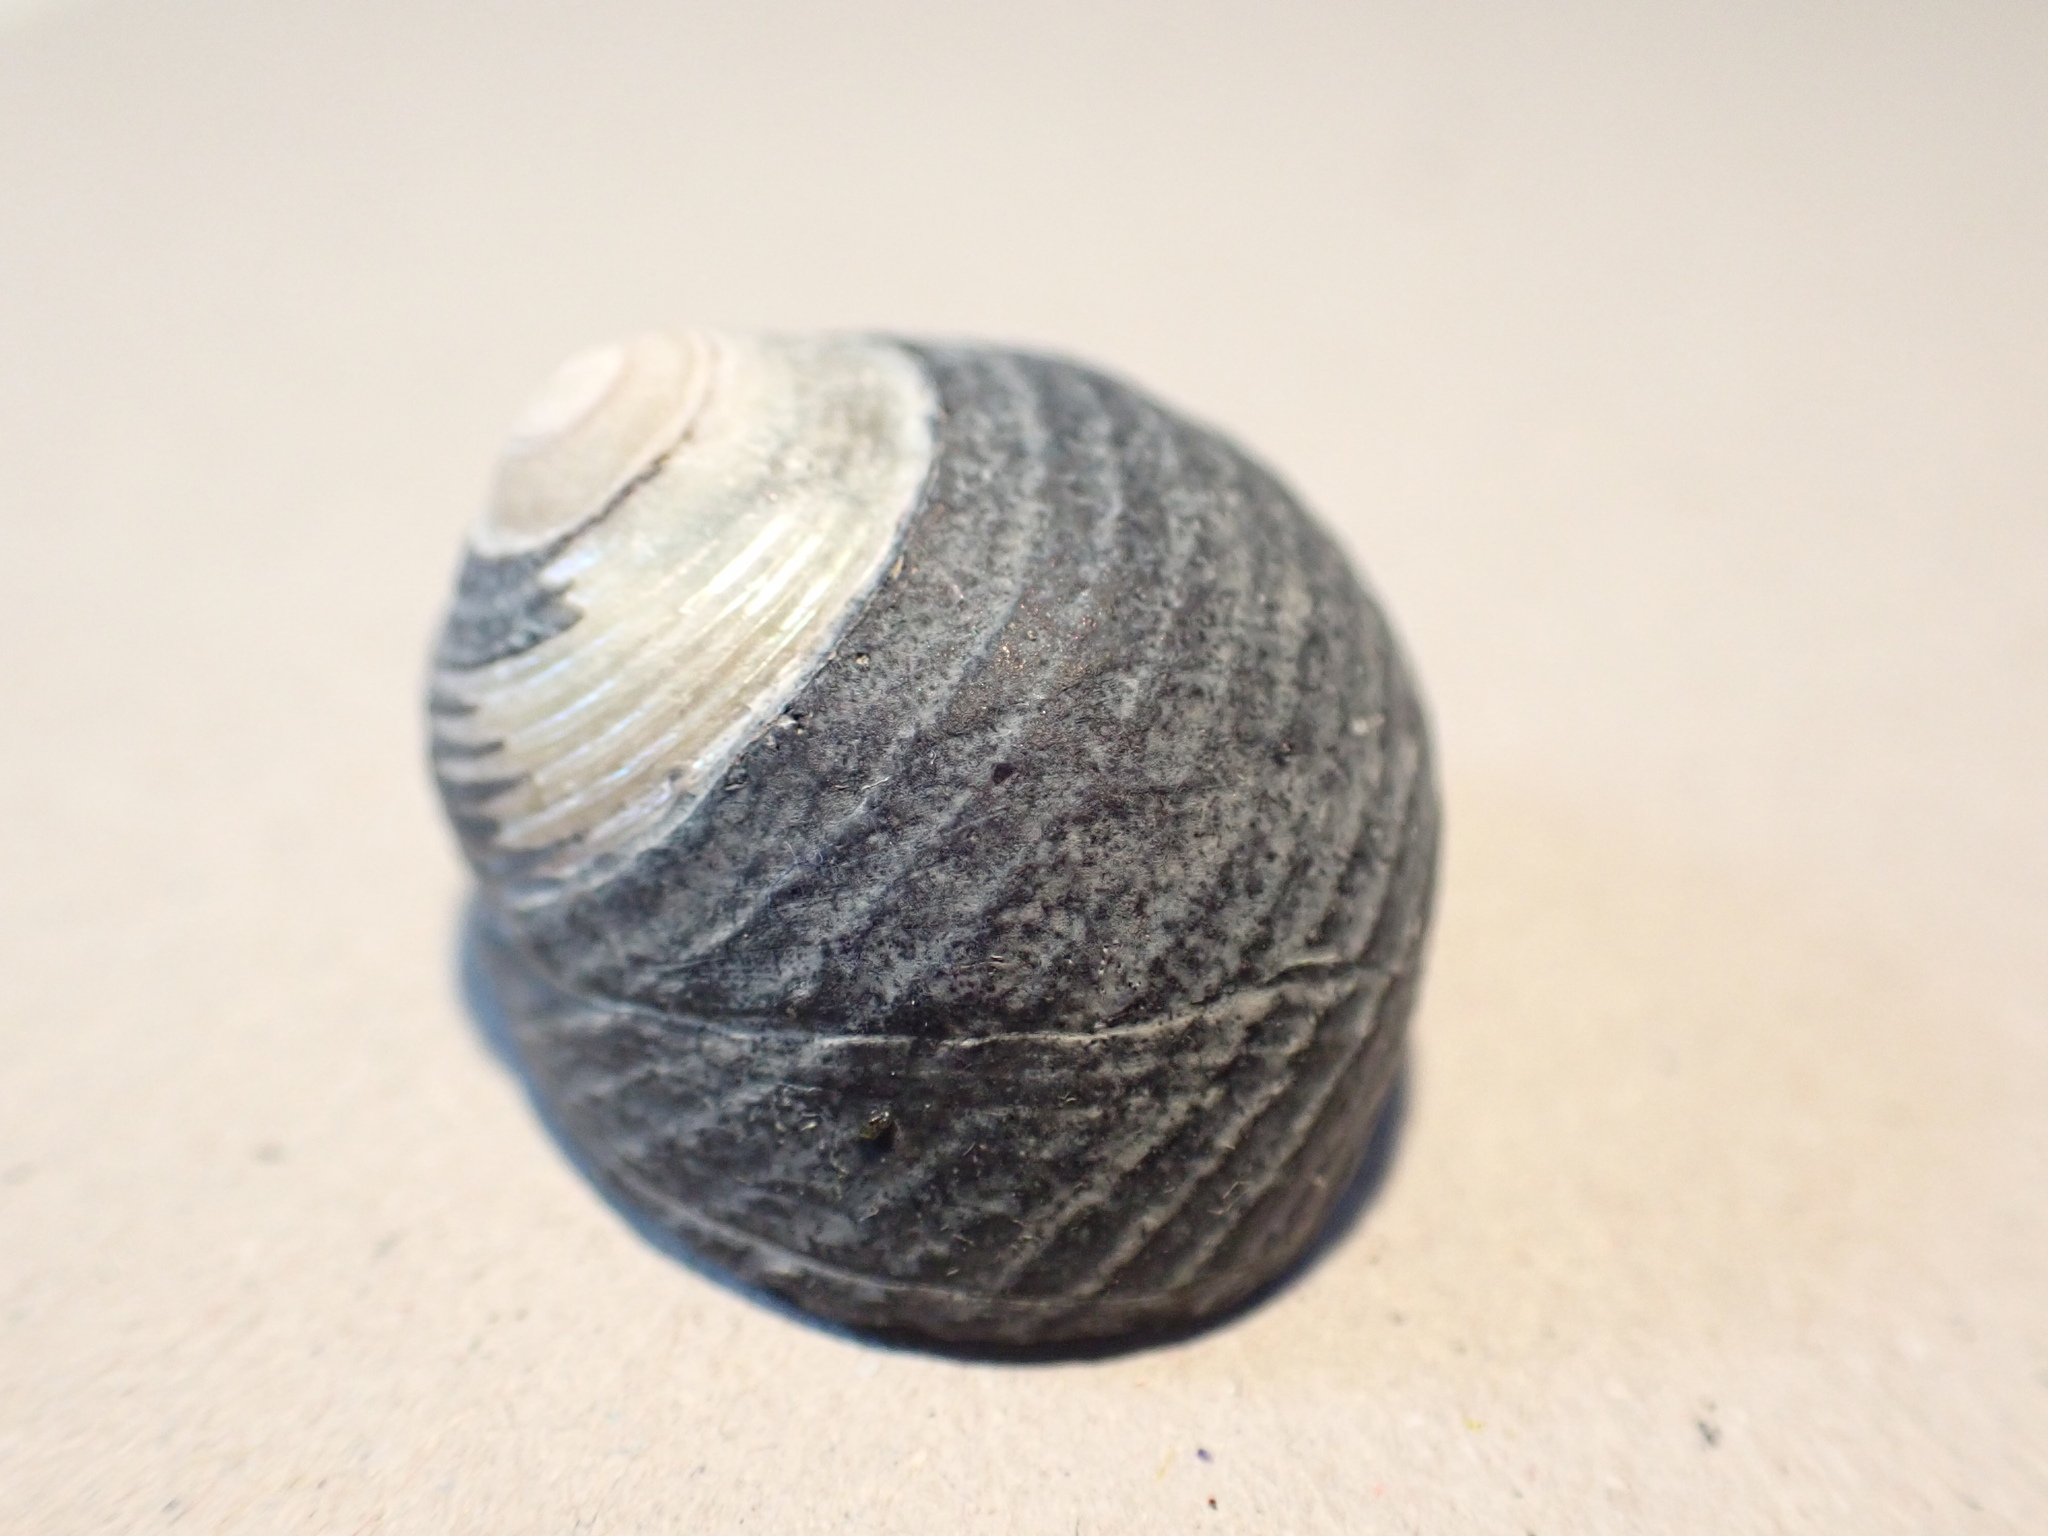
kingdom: Animalia
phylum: Mollusca
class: Gastropoda
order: Trochida
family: Trochidae
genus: Diloma
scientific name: Diloma zelandicum
